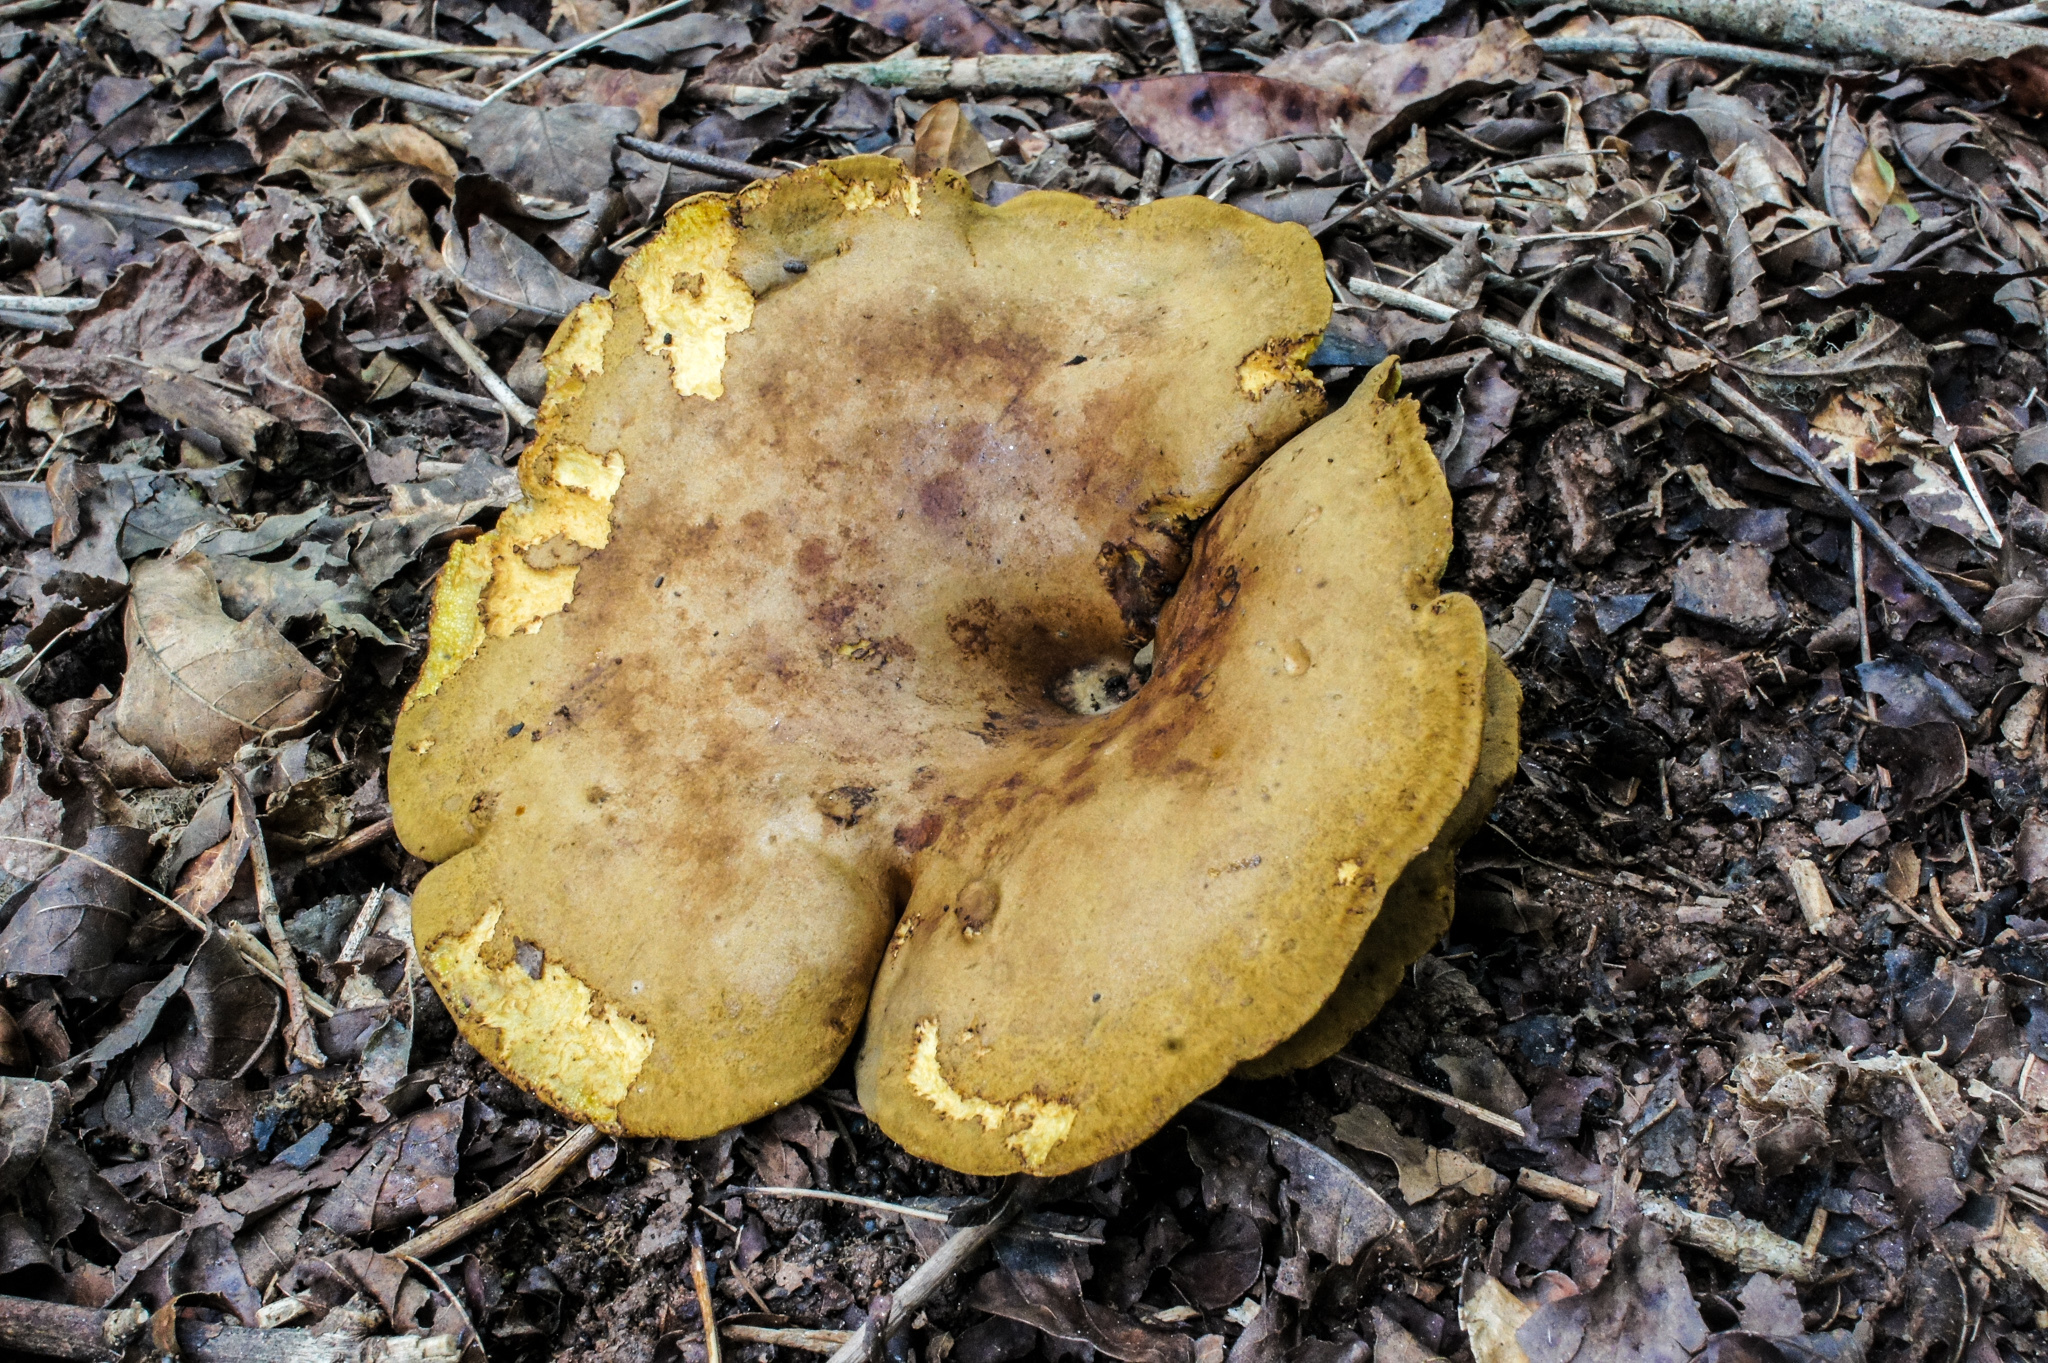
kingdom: Fungi
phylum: Basidiomycota
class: Agaricomycetes
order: Boletales
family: Boletinellaceae
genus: Boletinellus
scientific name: Boletinellus merulioides
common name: Ash tree bolete
